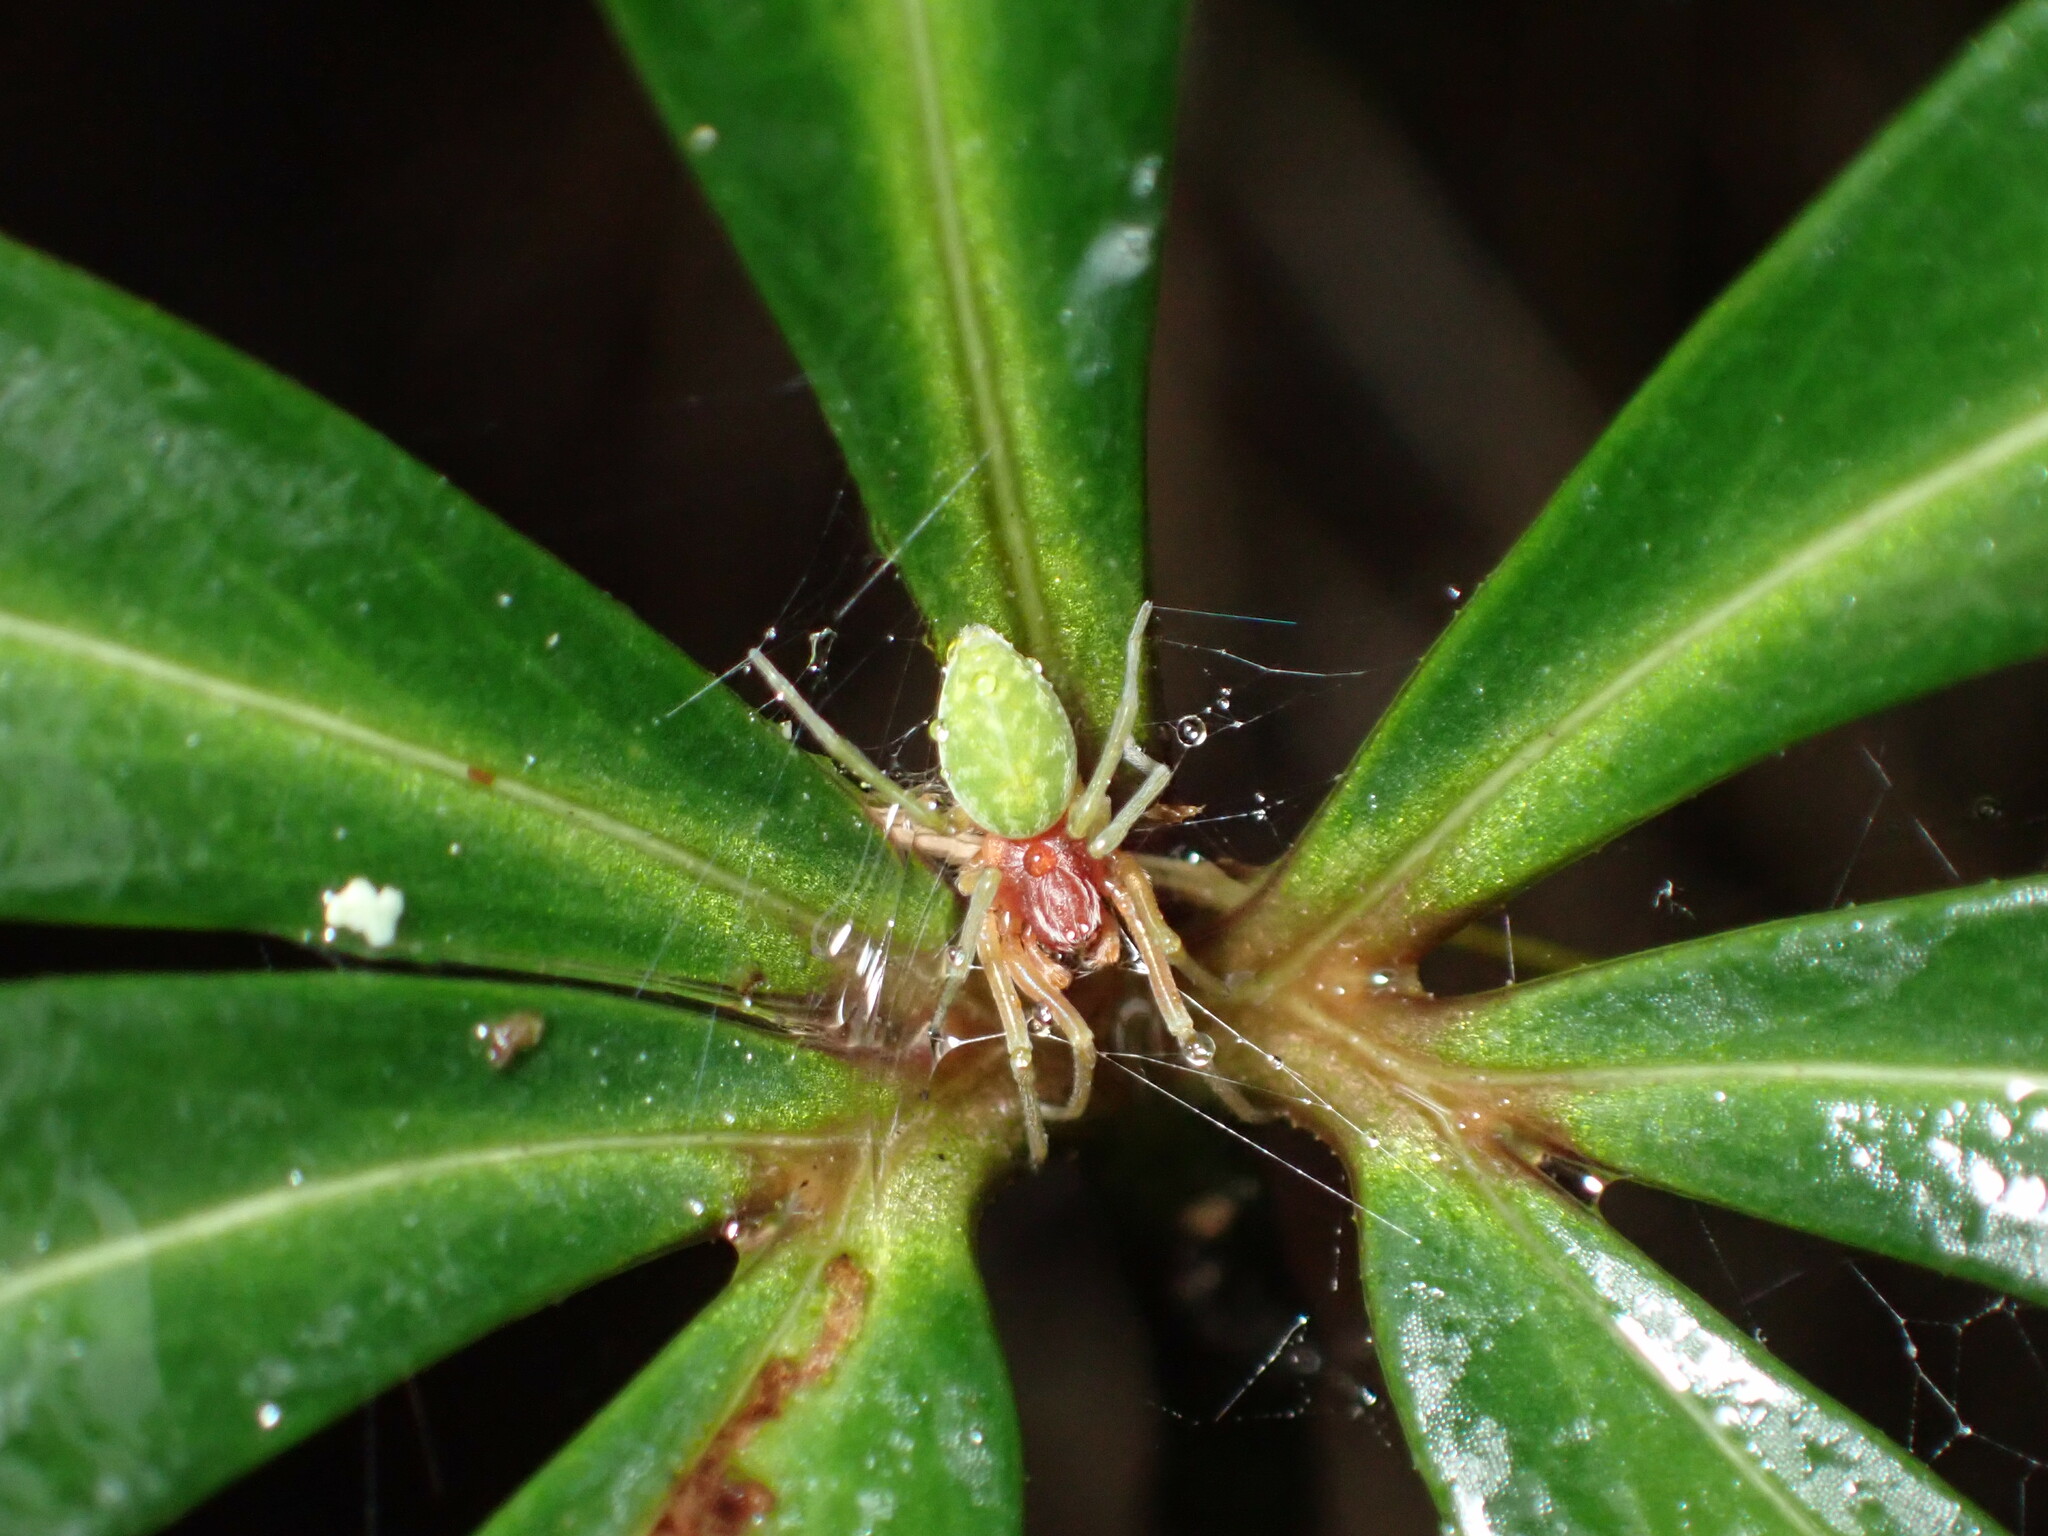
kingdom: Animalia
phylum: Arthropoda
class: Arachnida
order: Araneae
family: Dictynidae
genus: Nigma
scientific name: Nigma walckenaeri
